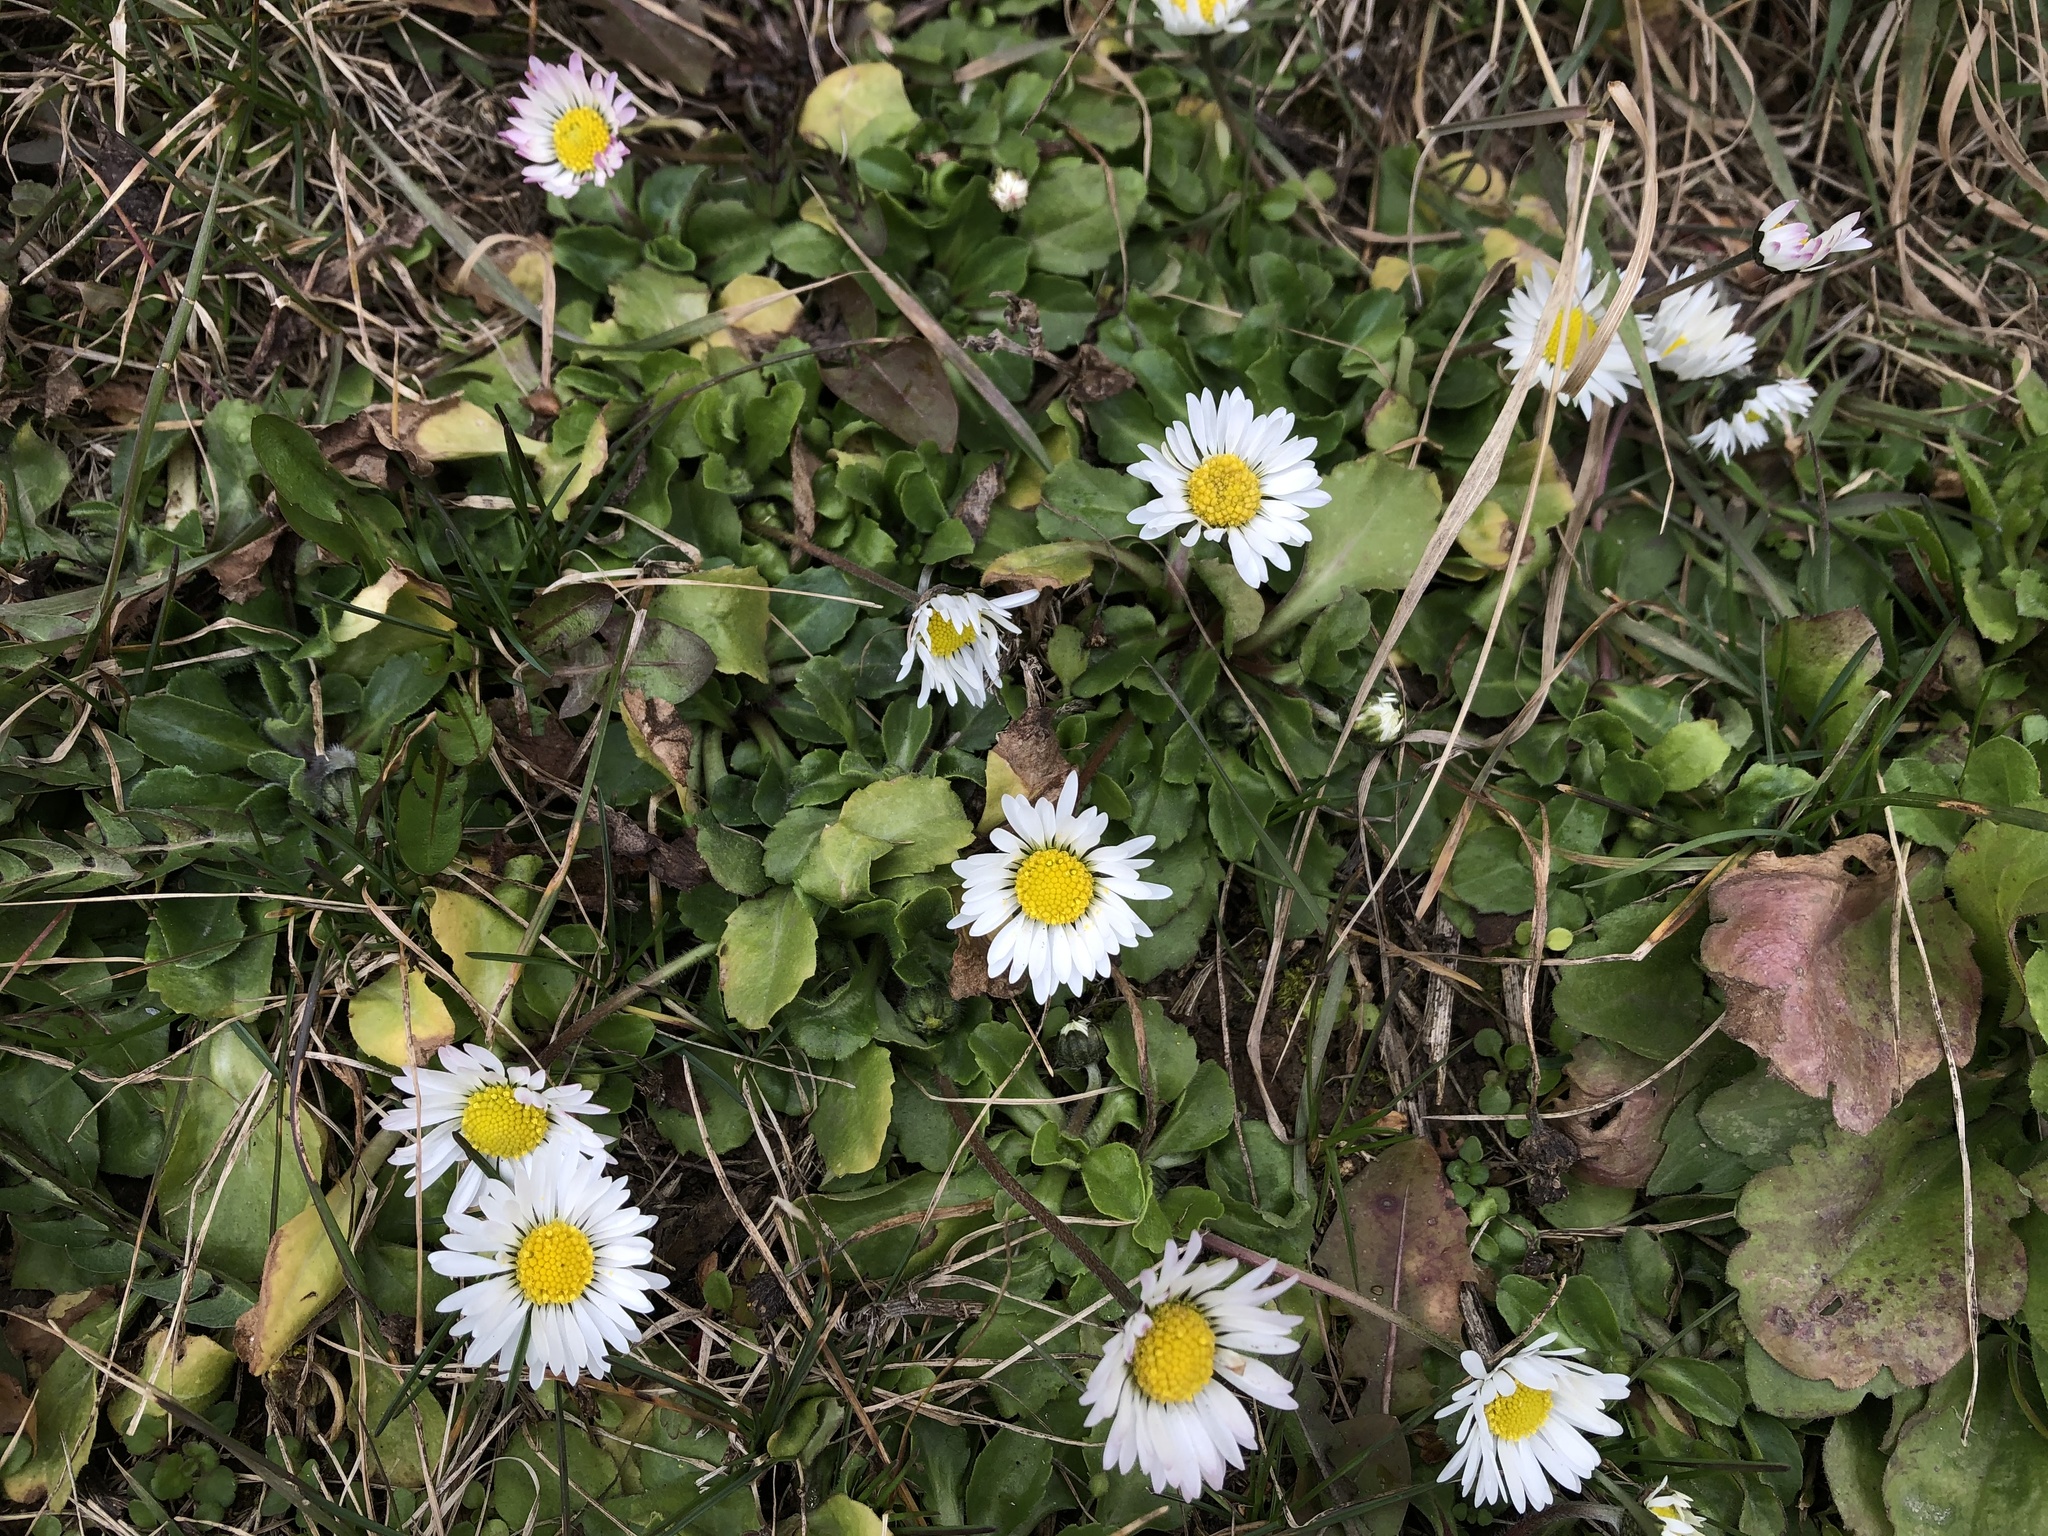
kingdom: Plantae
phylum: Tracheophyta
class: Magnoliopsida
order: Asterales
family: Asteraceae
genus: Bellis
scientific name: Bellis perennis
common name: Lawndaisy
